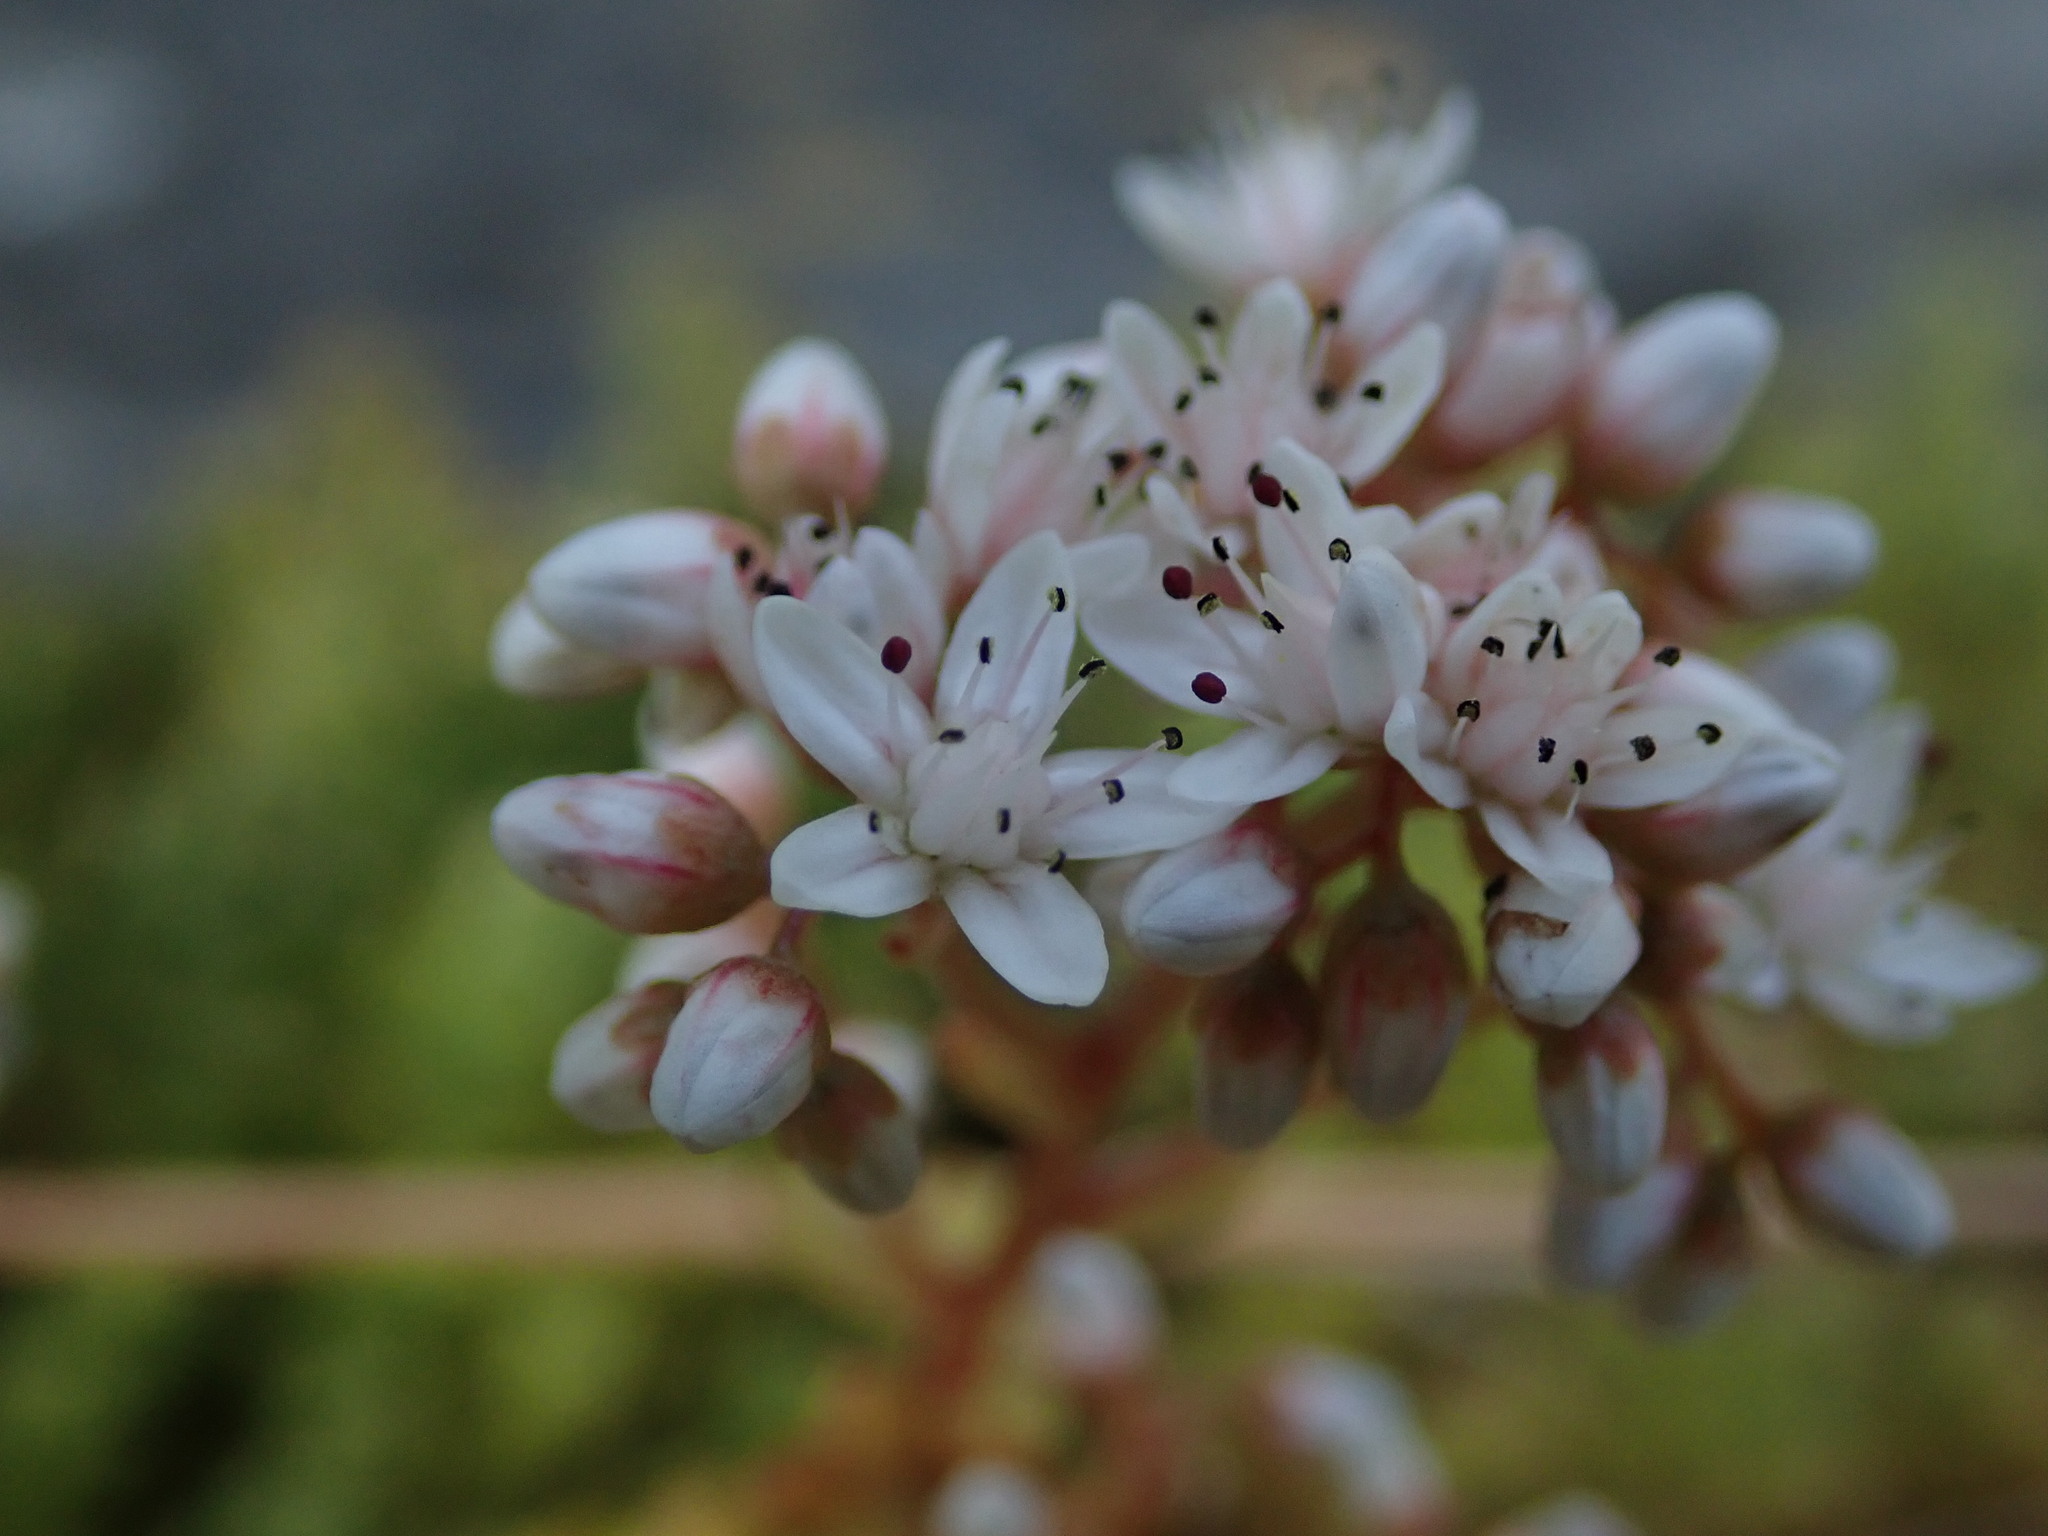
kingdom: Plantae
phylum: Tracheophyta
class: Magnoliopsida
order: Saxifragales
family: Crassulaceae
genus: Sedum
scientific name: Sedum album
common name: White stonecrop
